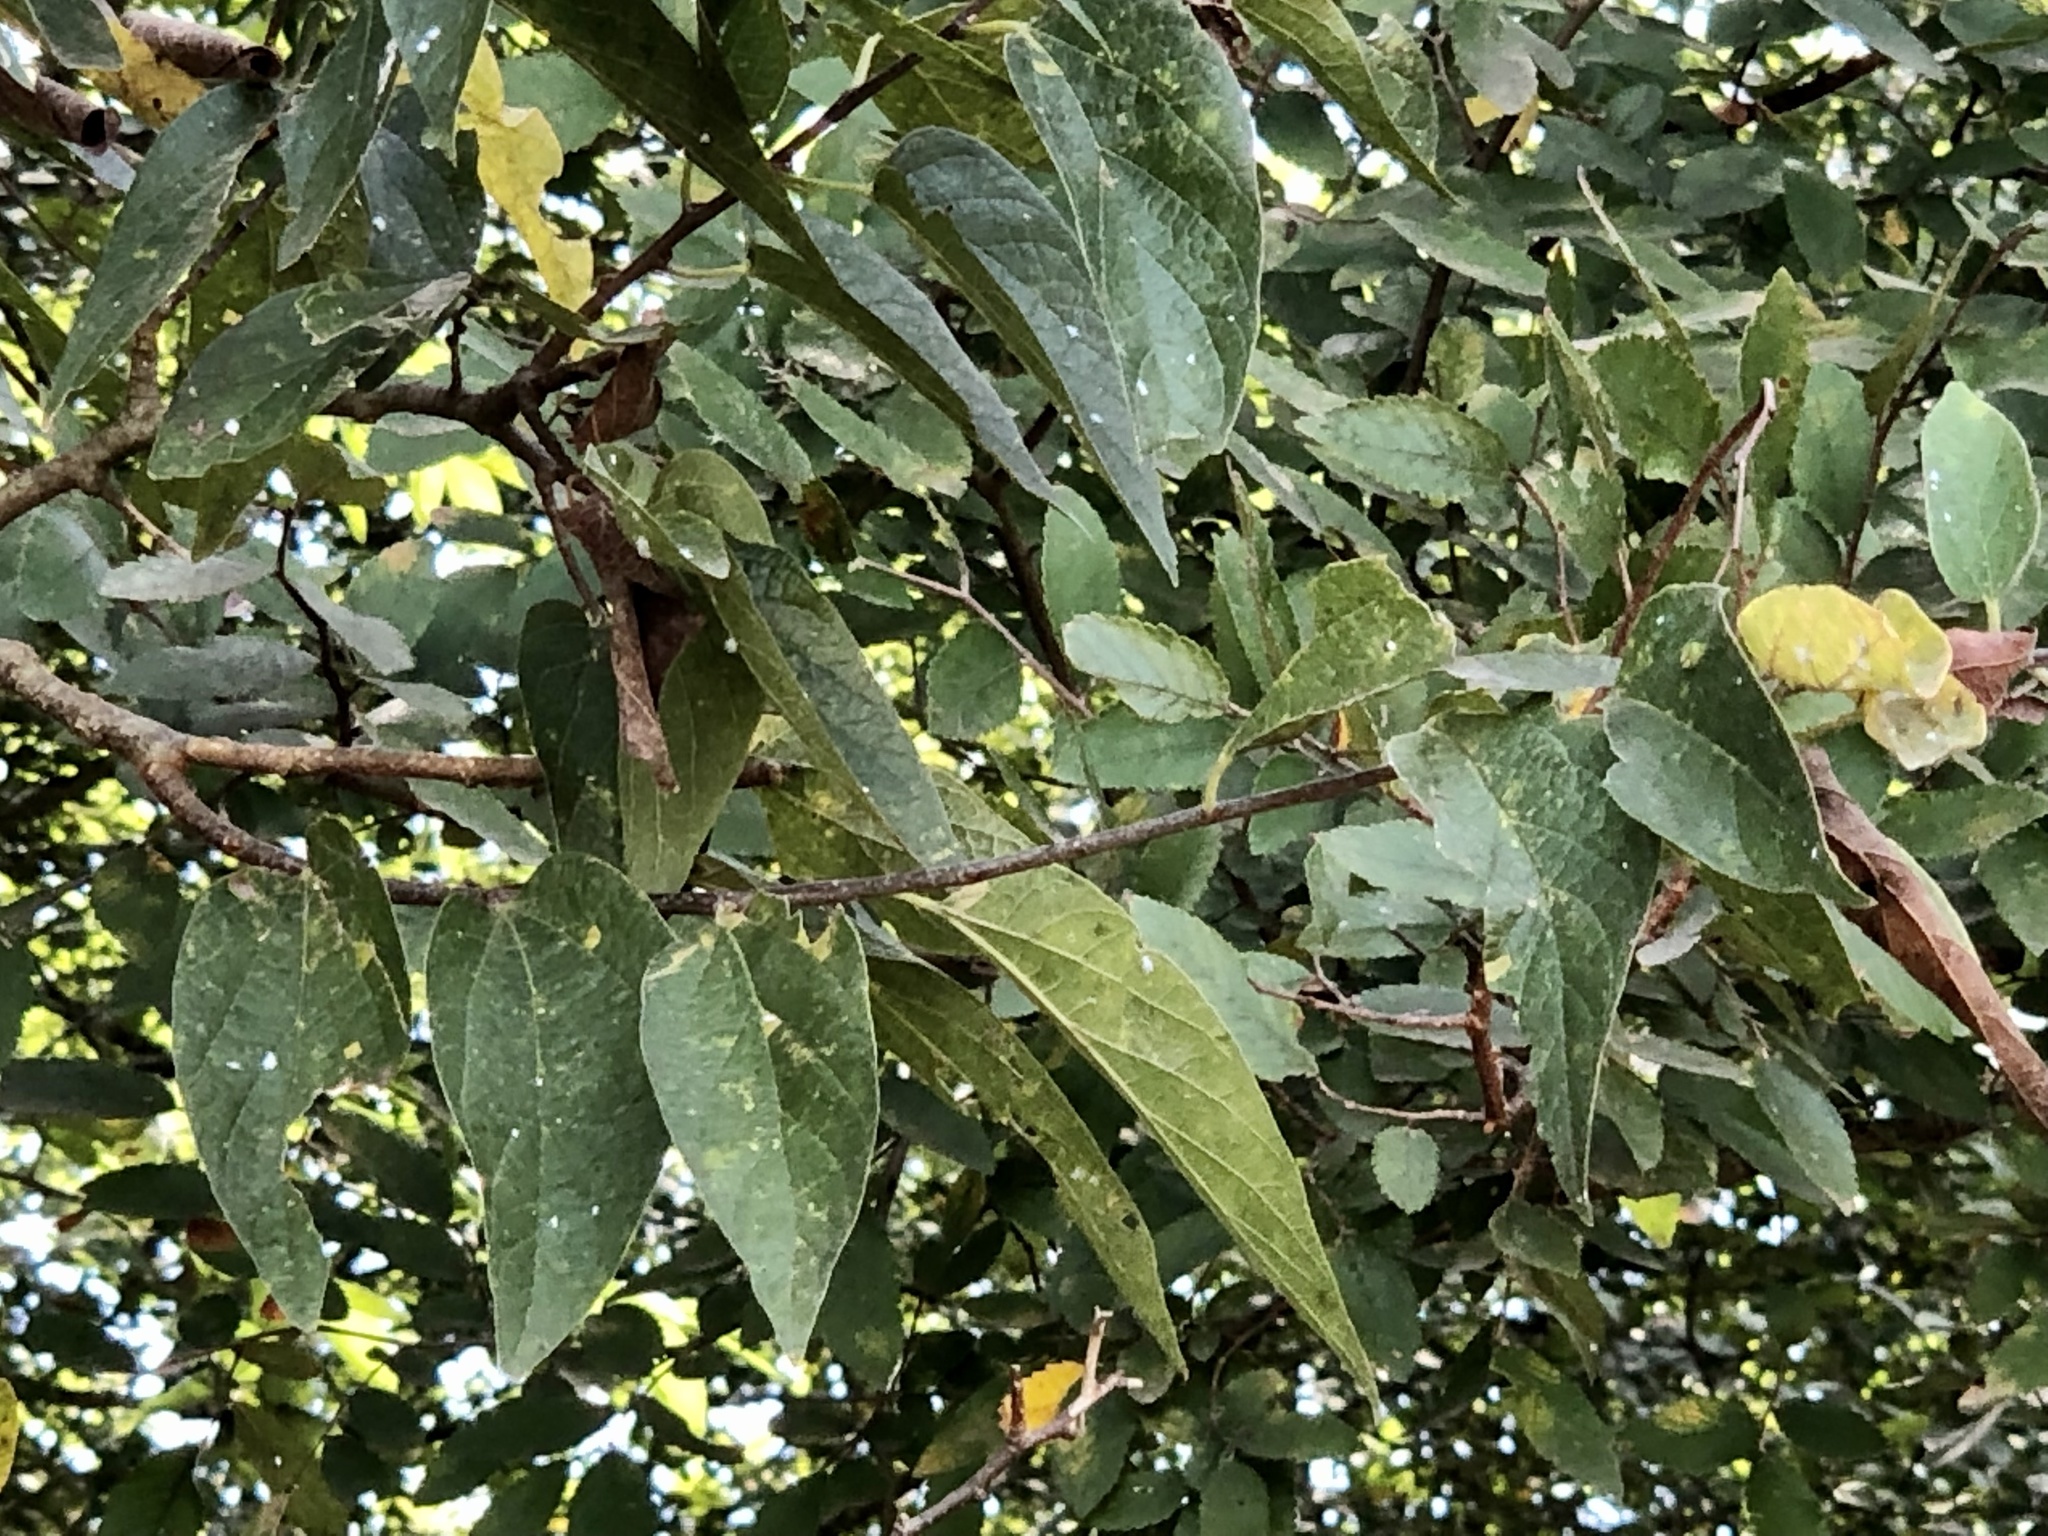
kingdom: Plantae
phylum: Tracheophyta
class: Magnoliopsida
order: Rosales
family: Cannabaceae
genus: Celtis
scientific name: Celtis laevigata
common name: Sugarberry
